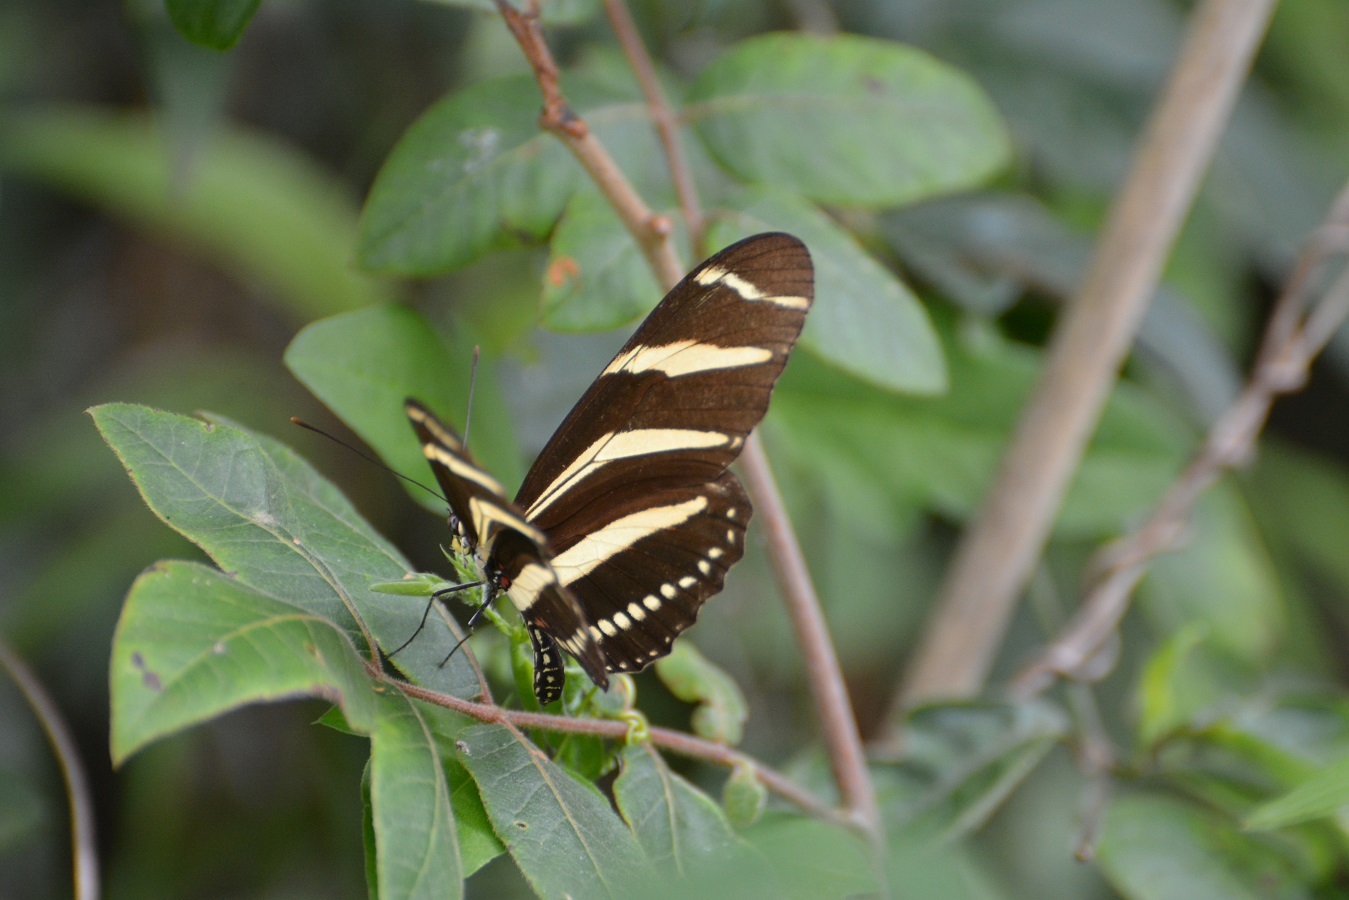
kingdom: Animalia
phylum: Arthropoda
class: Insecta
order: Lepidoptera
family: Nymphalidae
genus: Heliconius
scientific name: Heliconius charithonia
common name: Zebra long wing
